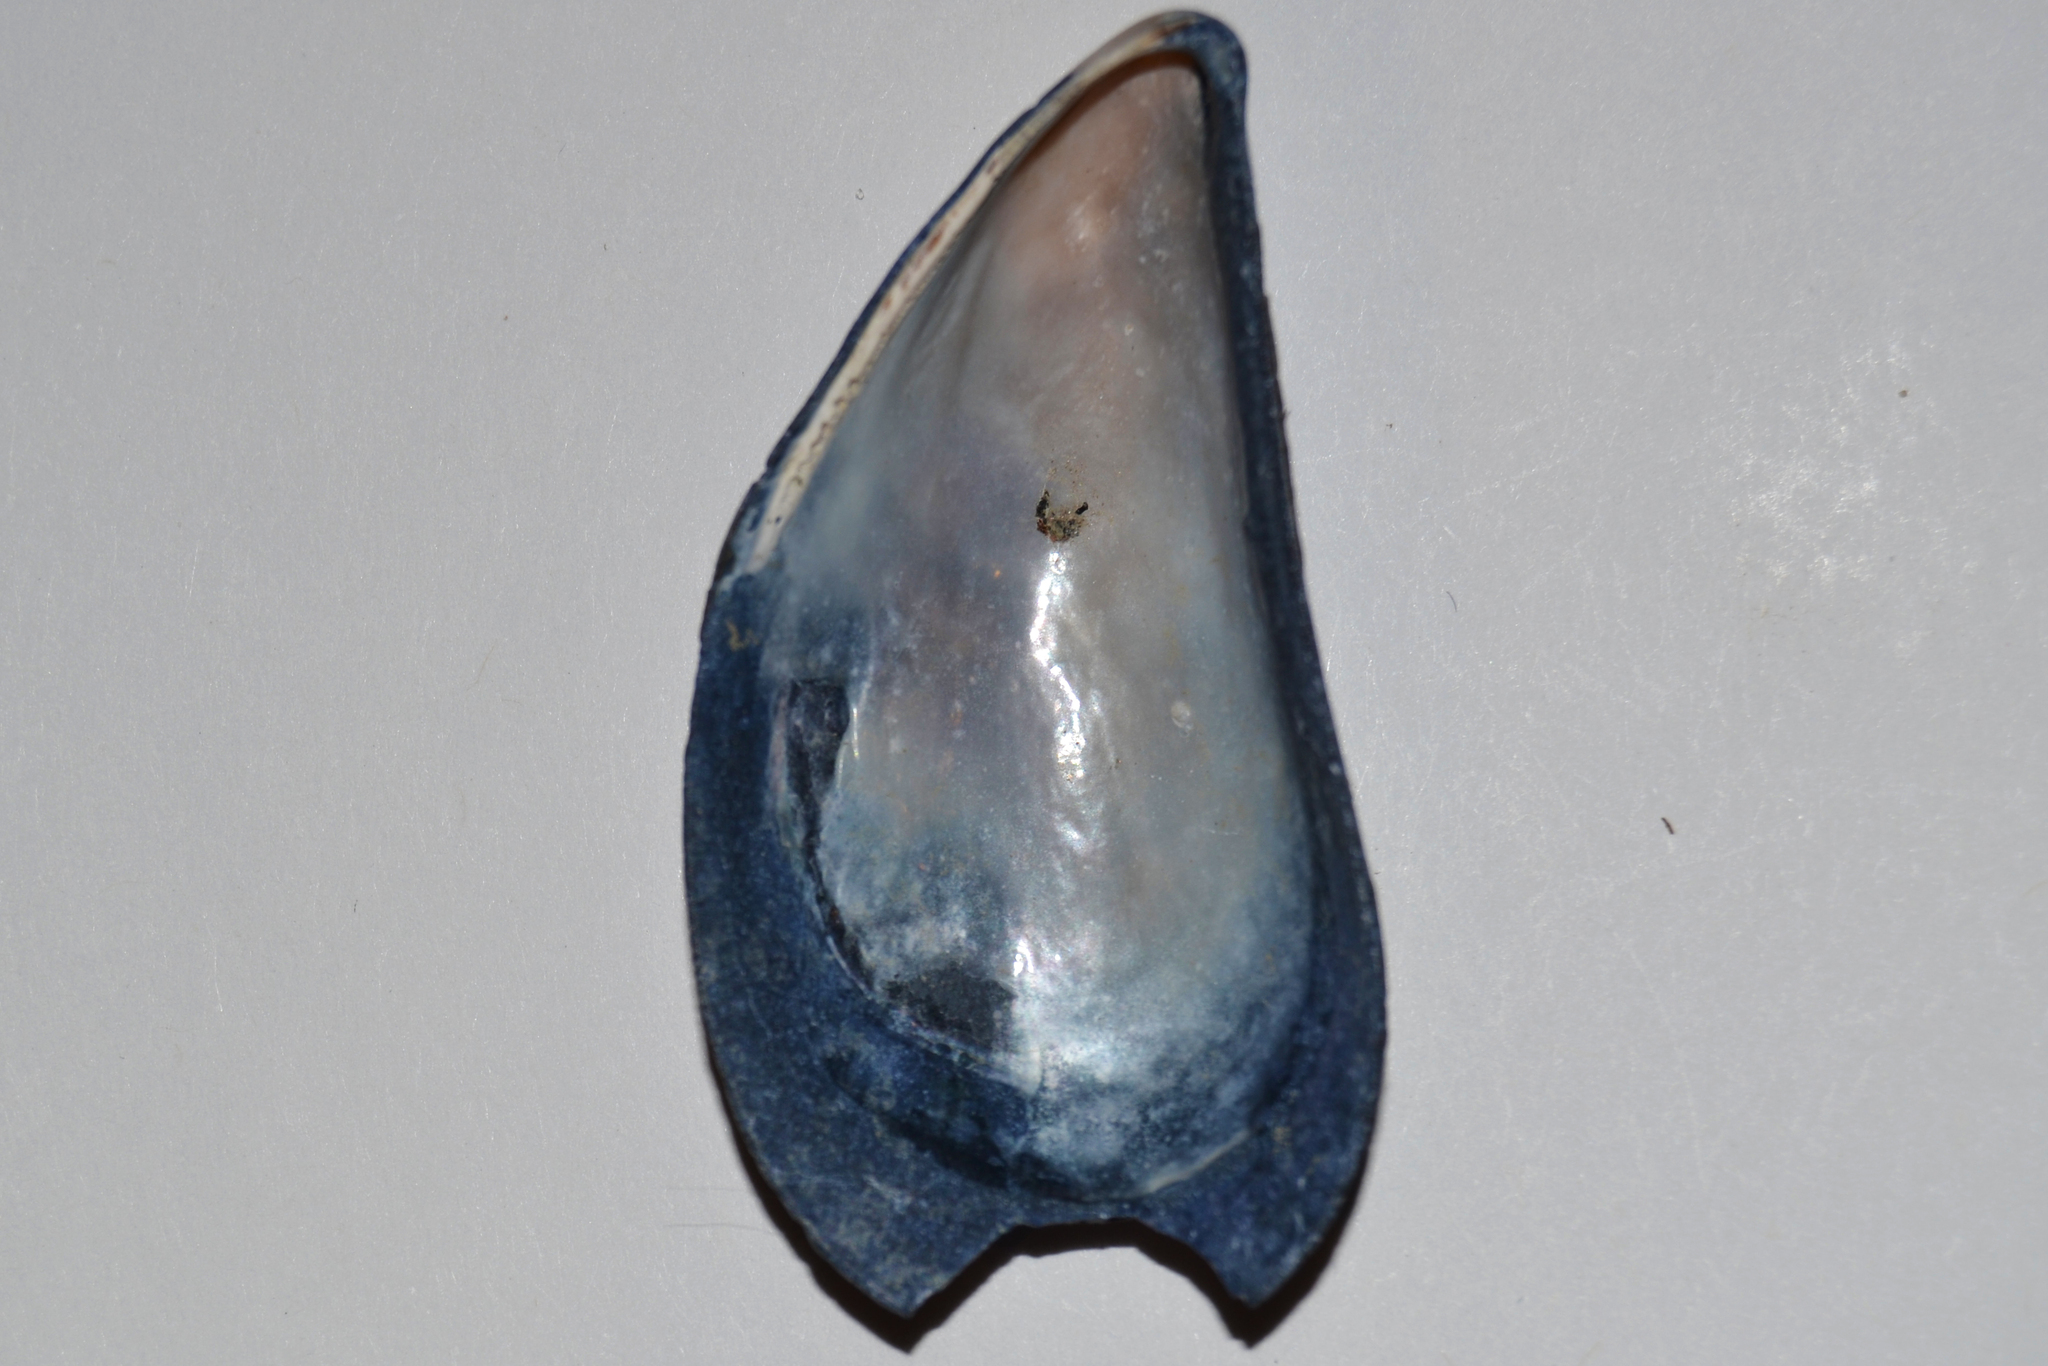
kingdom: Animalia
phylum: Mollusca
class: Bivalvia
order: Mytilida
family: Mytilidae
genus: Mytilus
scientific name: Mytilus edulis
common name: Blue mussel
